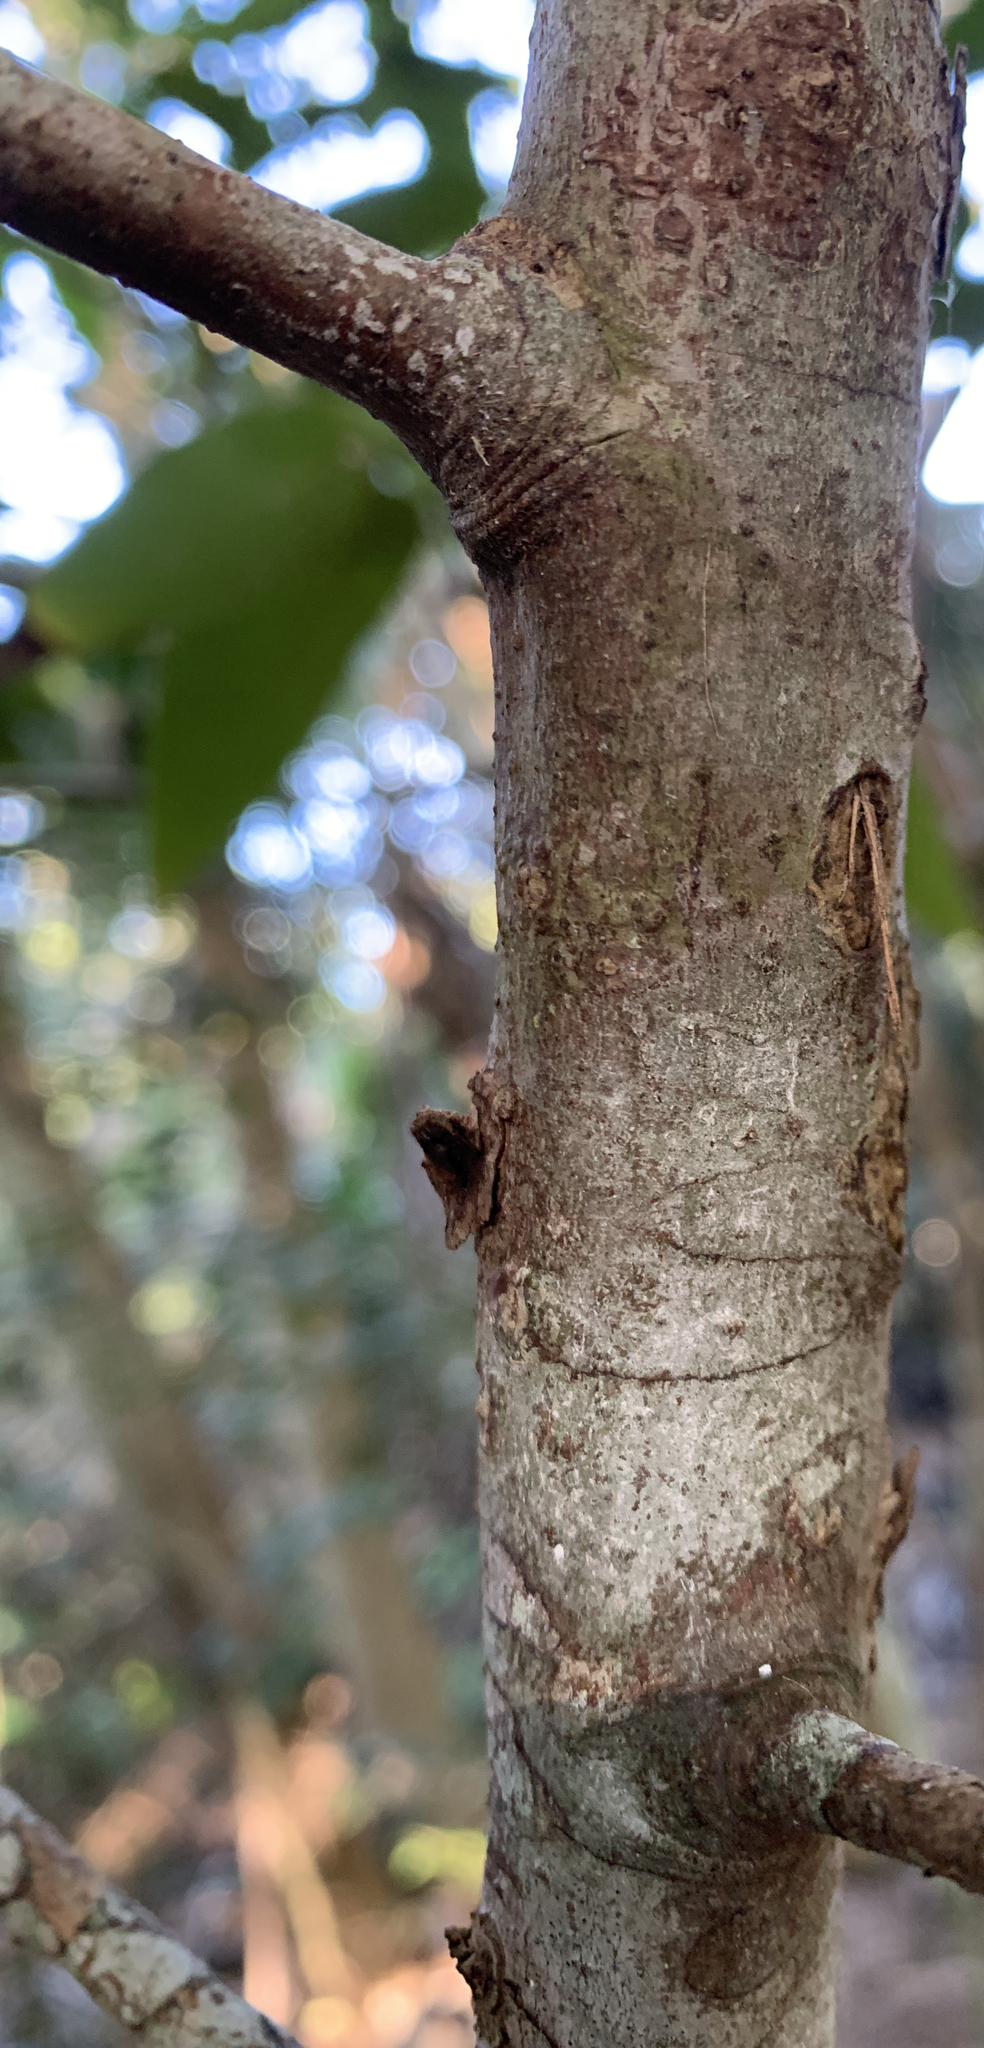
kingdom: Plantae
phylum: Tracheophyta
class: Magnoliopsida
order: Laurales
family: Lauraceae
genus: Damburneya
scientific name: Damburneya
